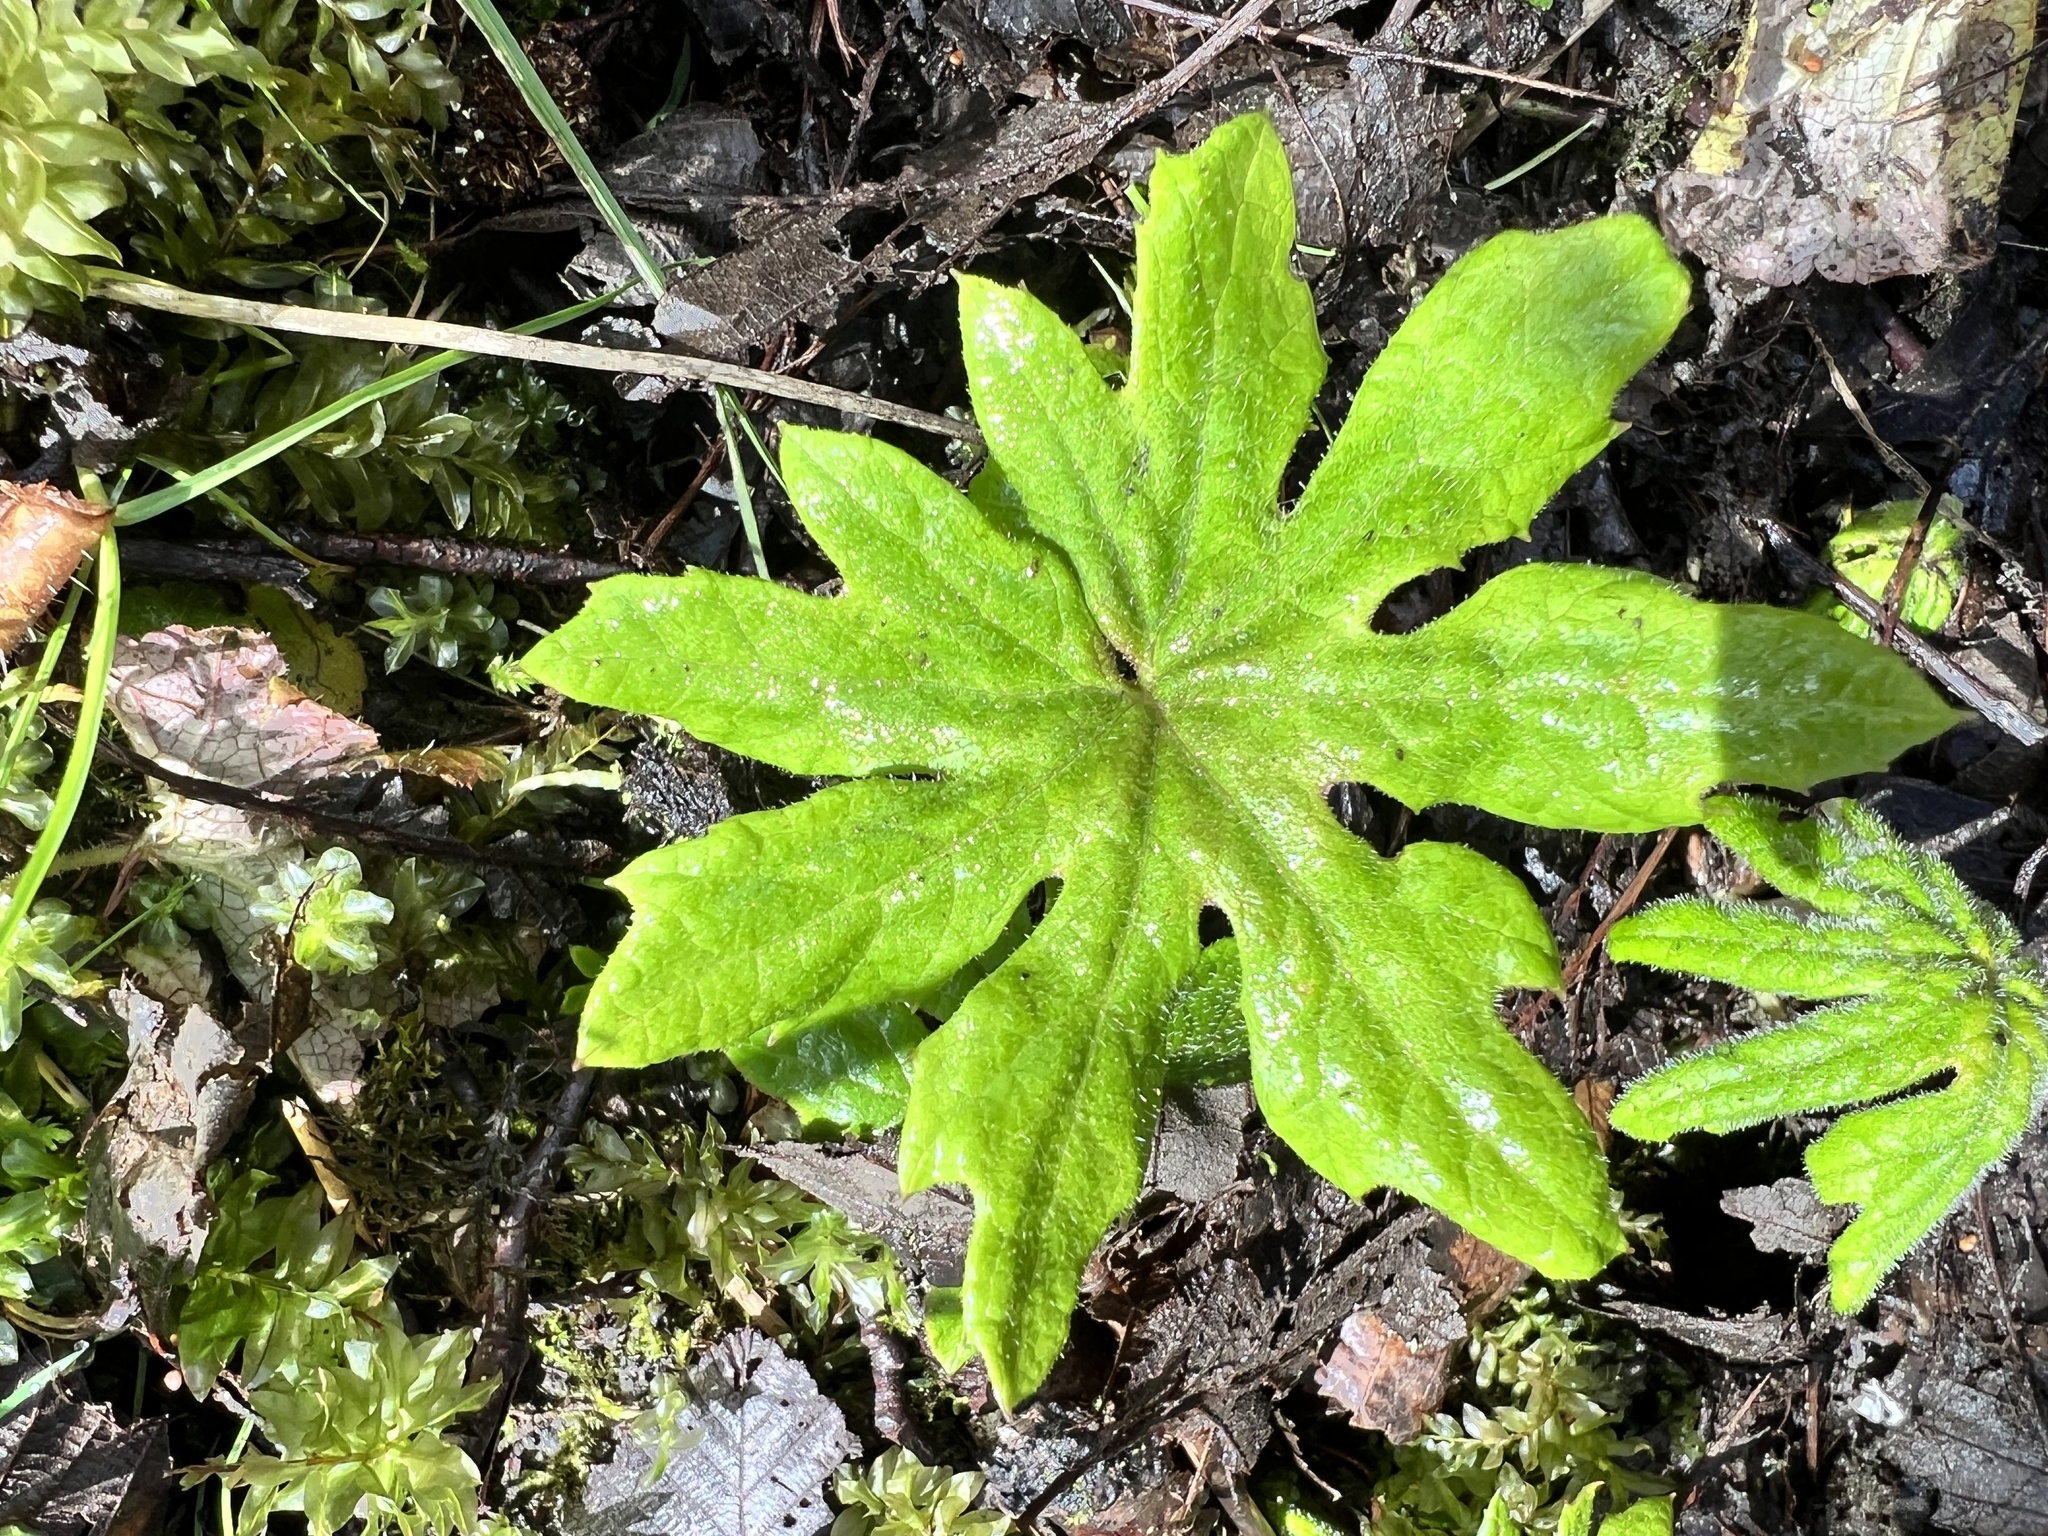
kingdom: Plantae
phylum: Tracheophyta
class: Magnoliopsida
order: Asterales
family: Asteraceae
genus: Petasites
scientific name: Petasites frigidus
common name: Arctic butterbur
